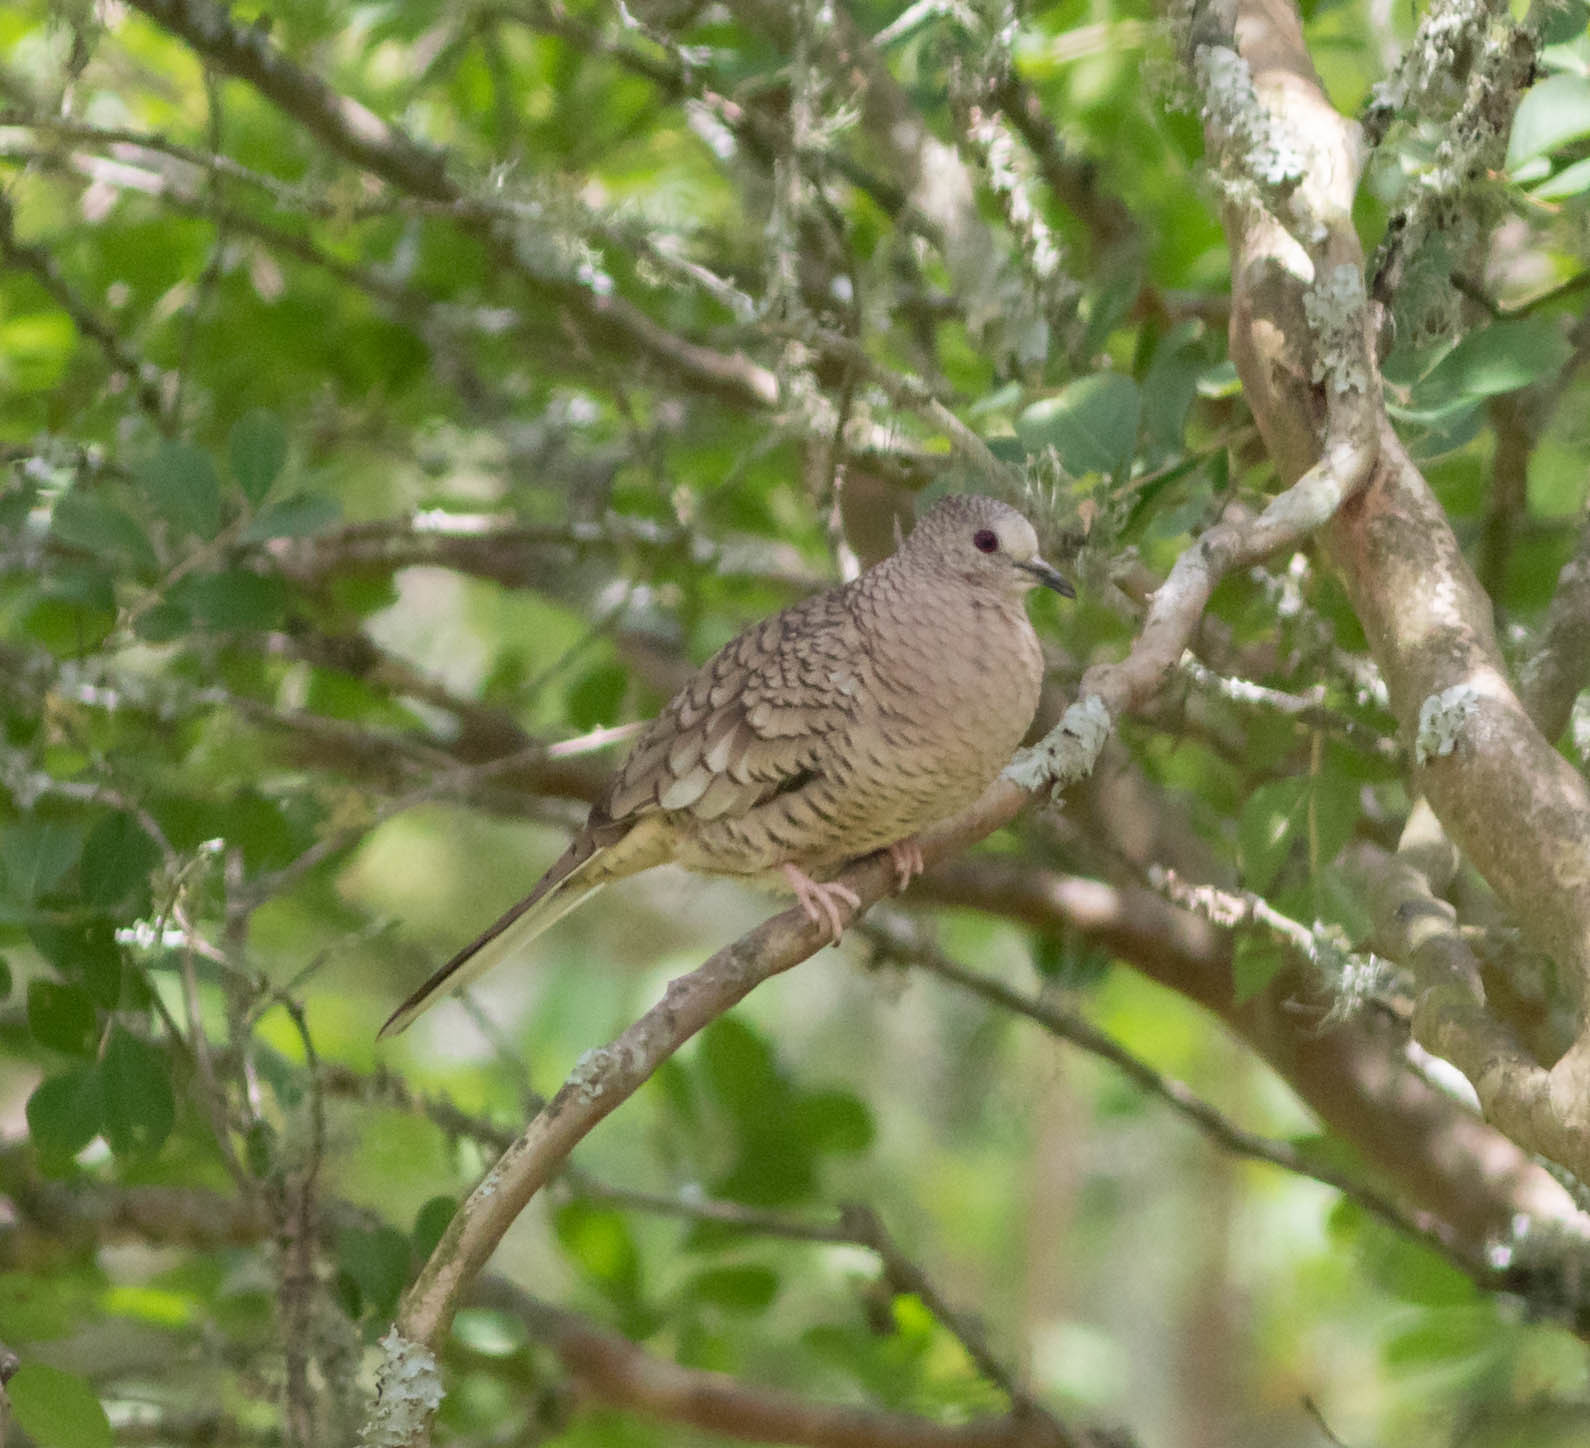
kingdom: Animalia
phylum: Chordata
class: Aves
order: Columbiformes
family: Columbidae
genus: Columbina
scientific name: Columbina inca
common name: Inca dove
